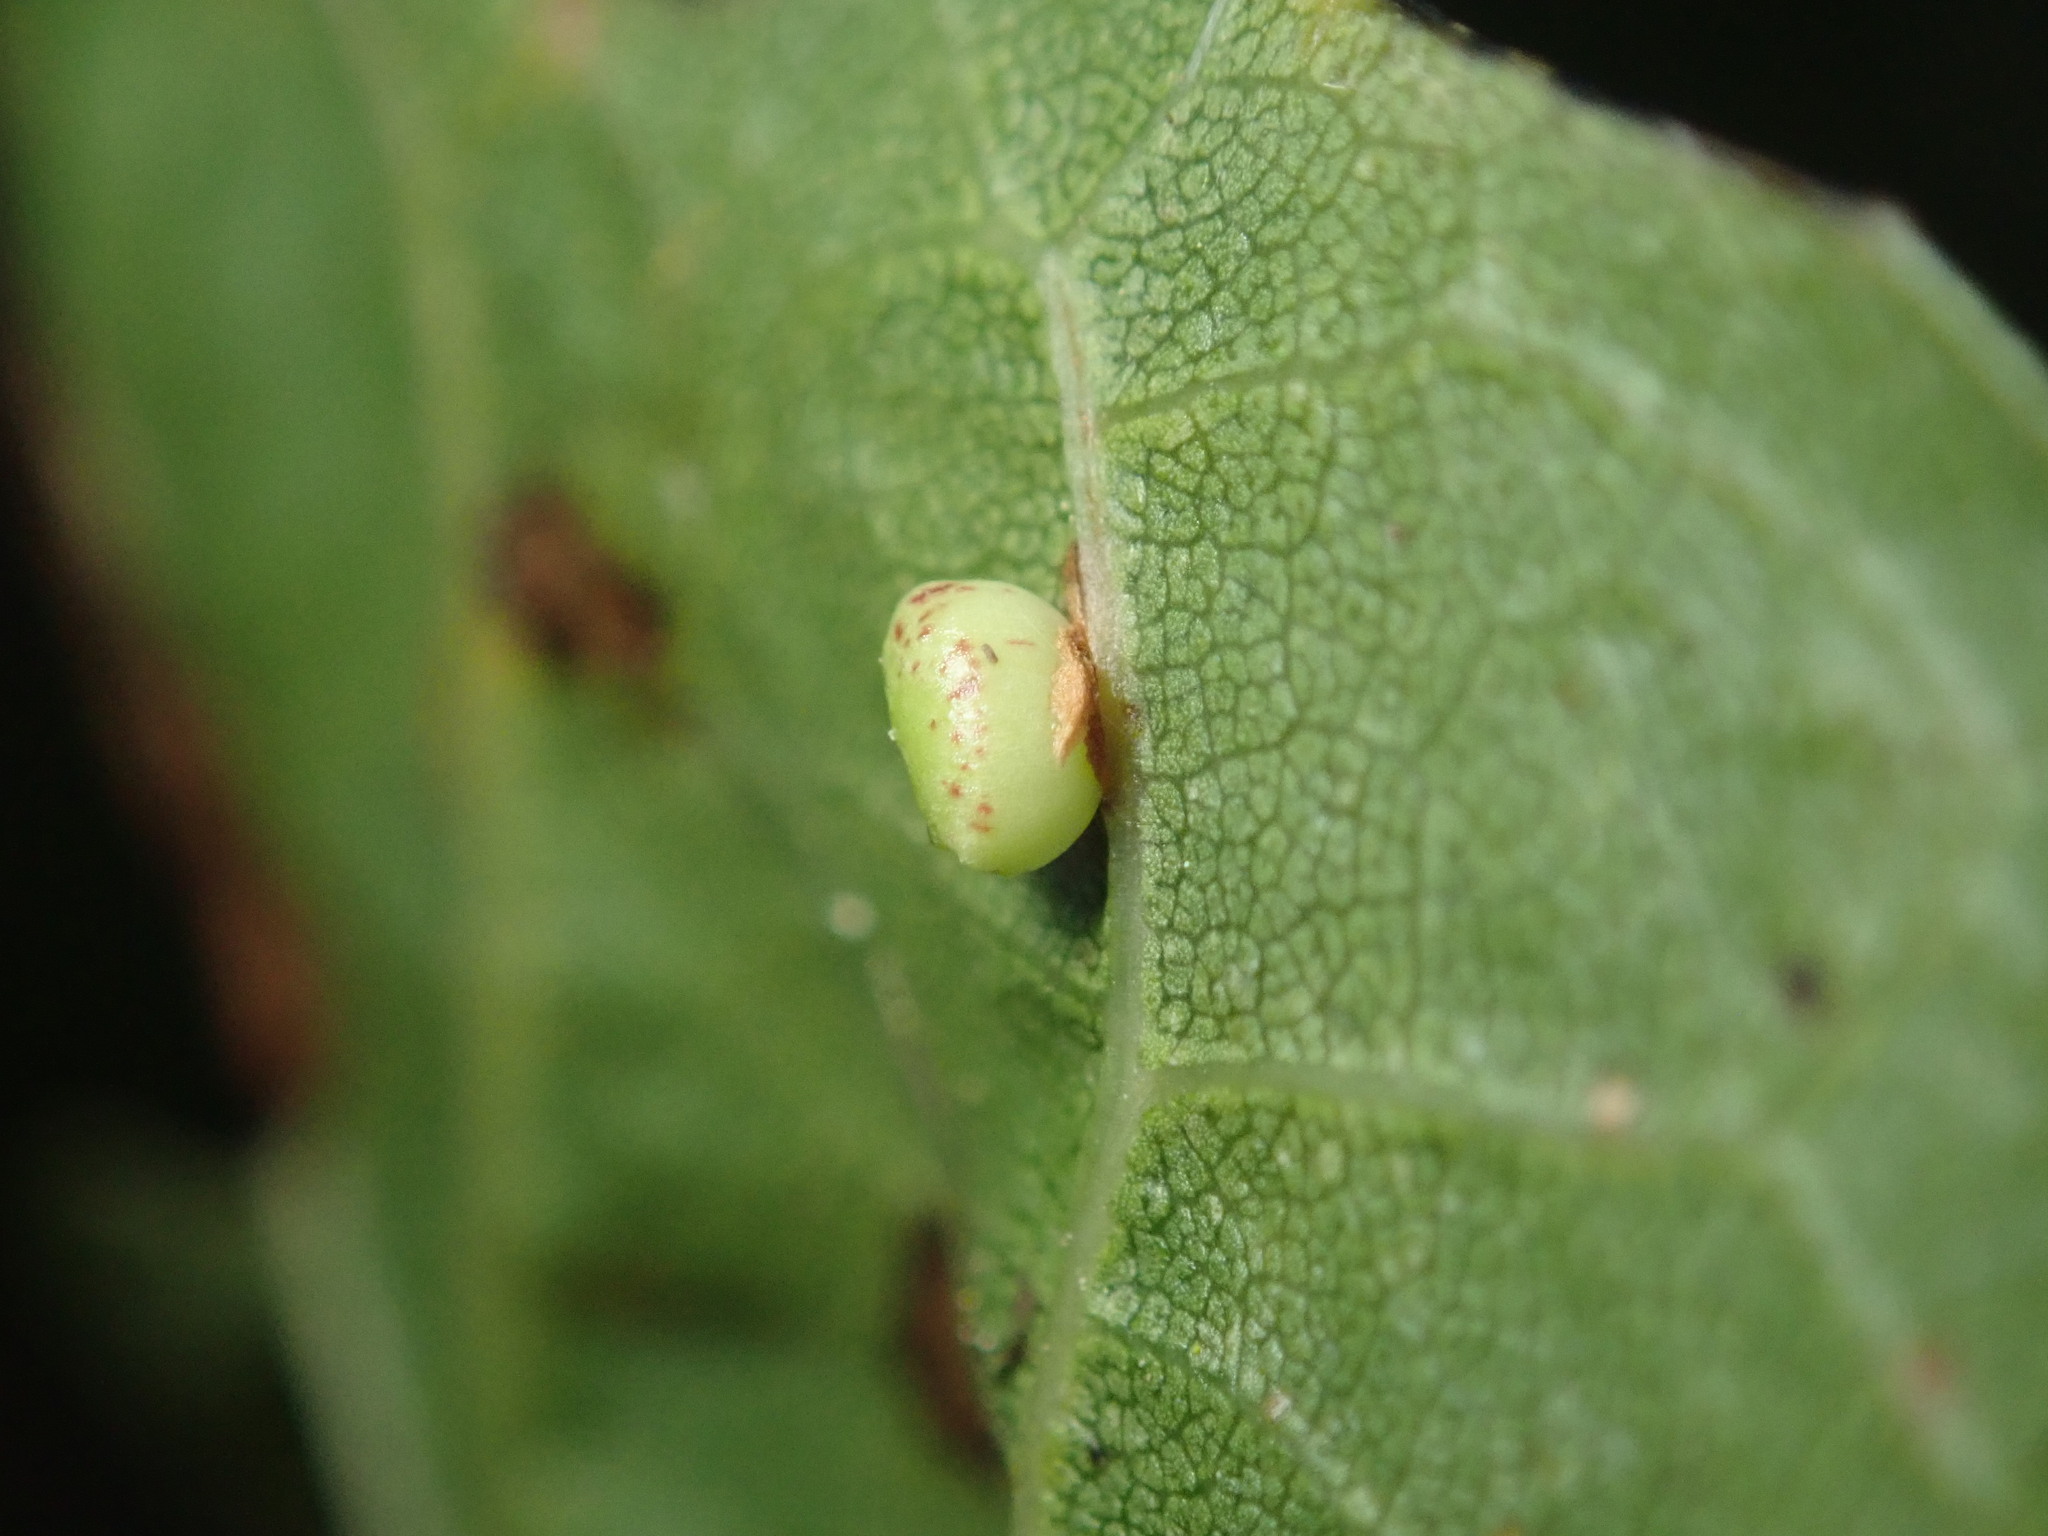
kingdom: Animalia
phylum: Arthropoda
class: Insecta
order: Hymenoptera
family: Cynipidae
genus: Dryocosmus
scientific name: Dryocosmus
